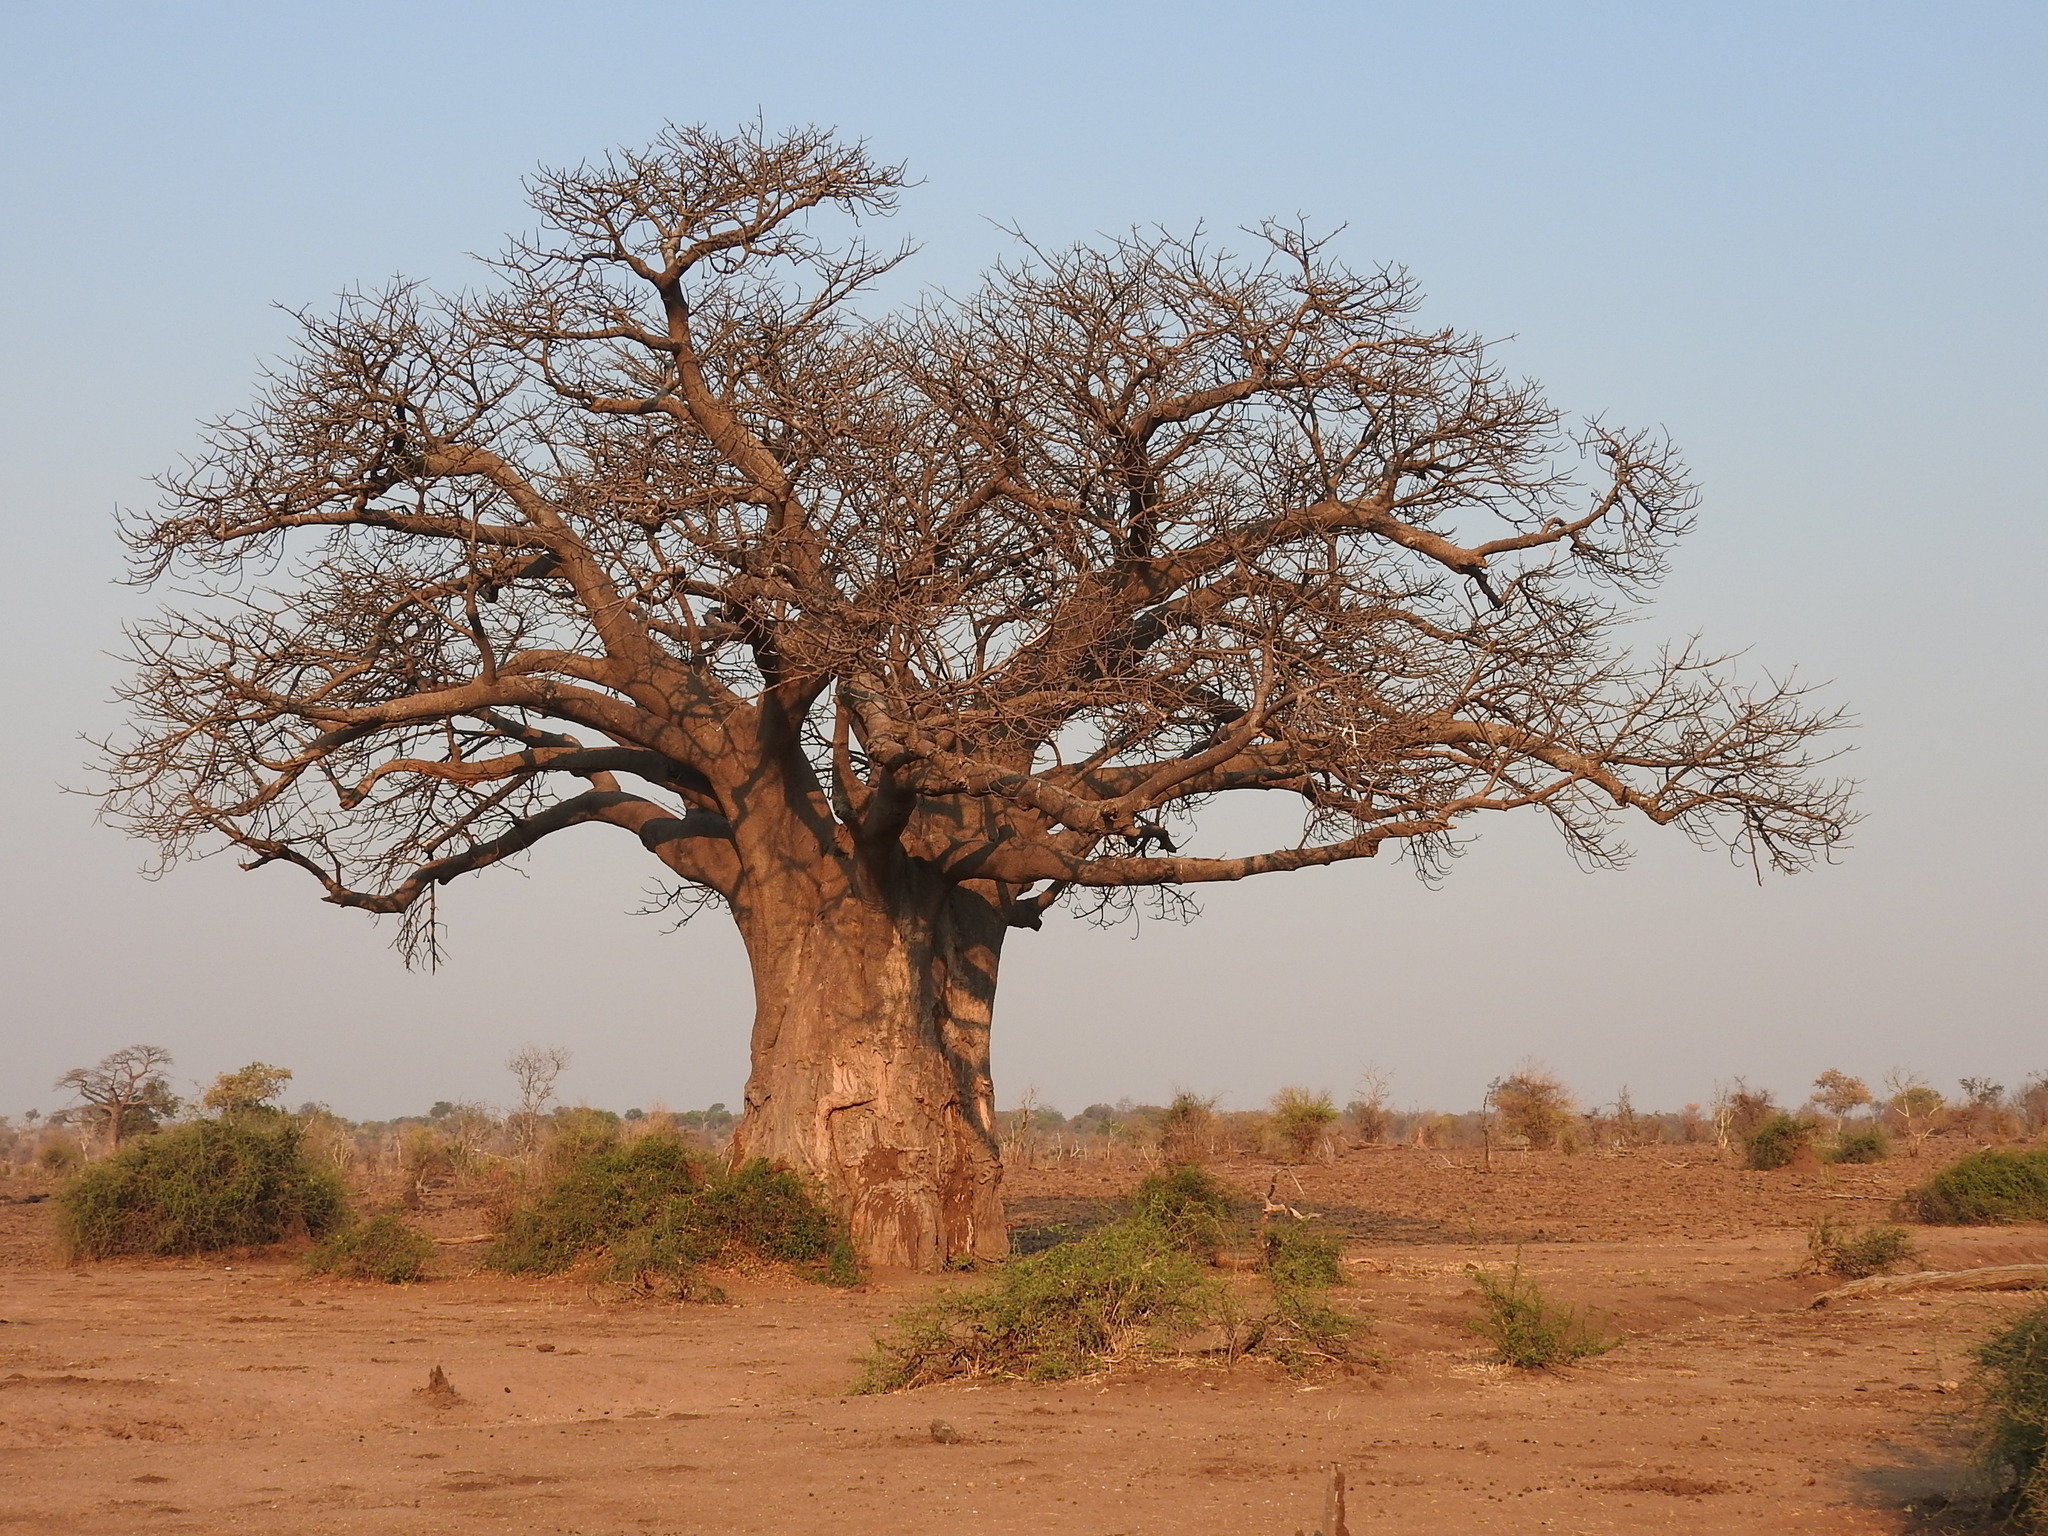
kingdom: Plantae
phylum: Tracheophyta
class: Magnoliopsida
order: Malvales
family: Malvaceae
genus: Adansonia
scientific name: Adansonia digitata
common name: Dead-rat-tree
